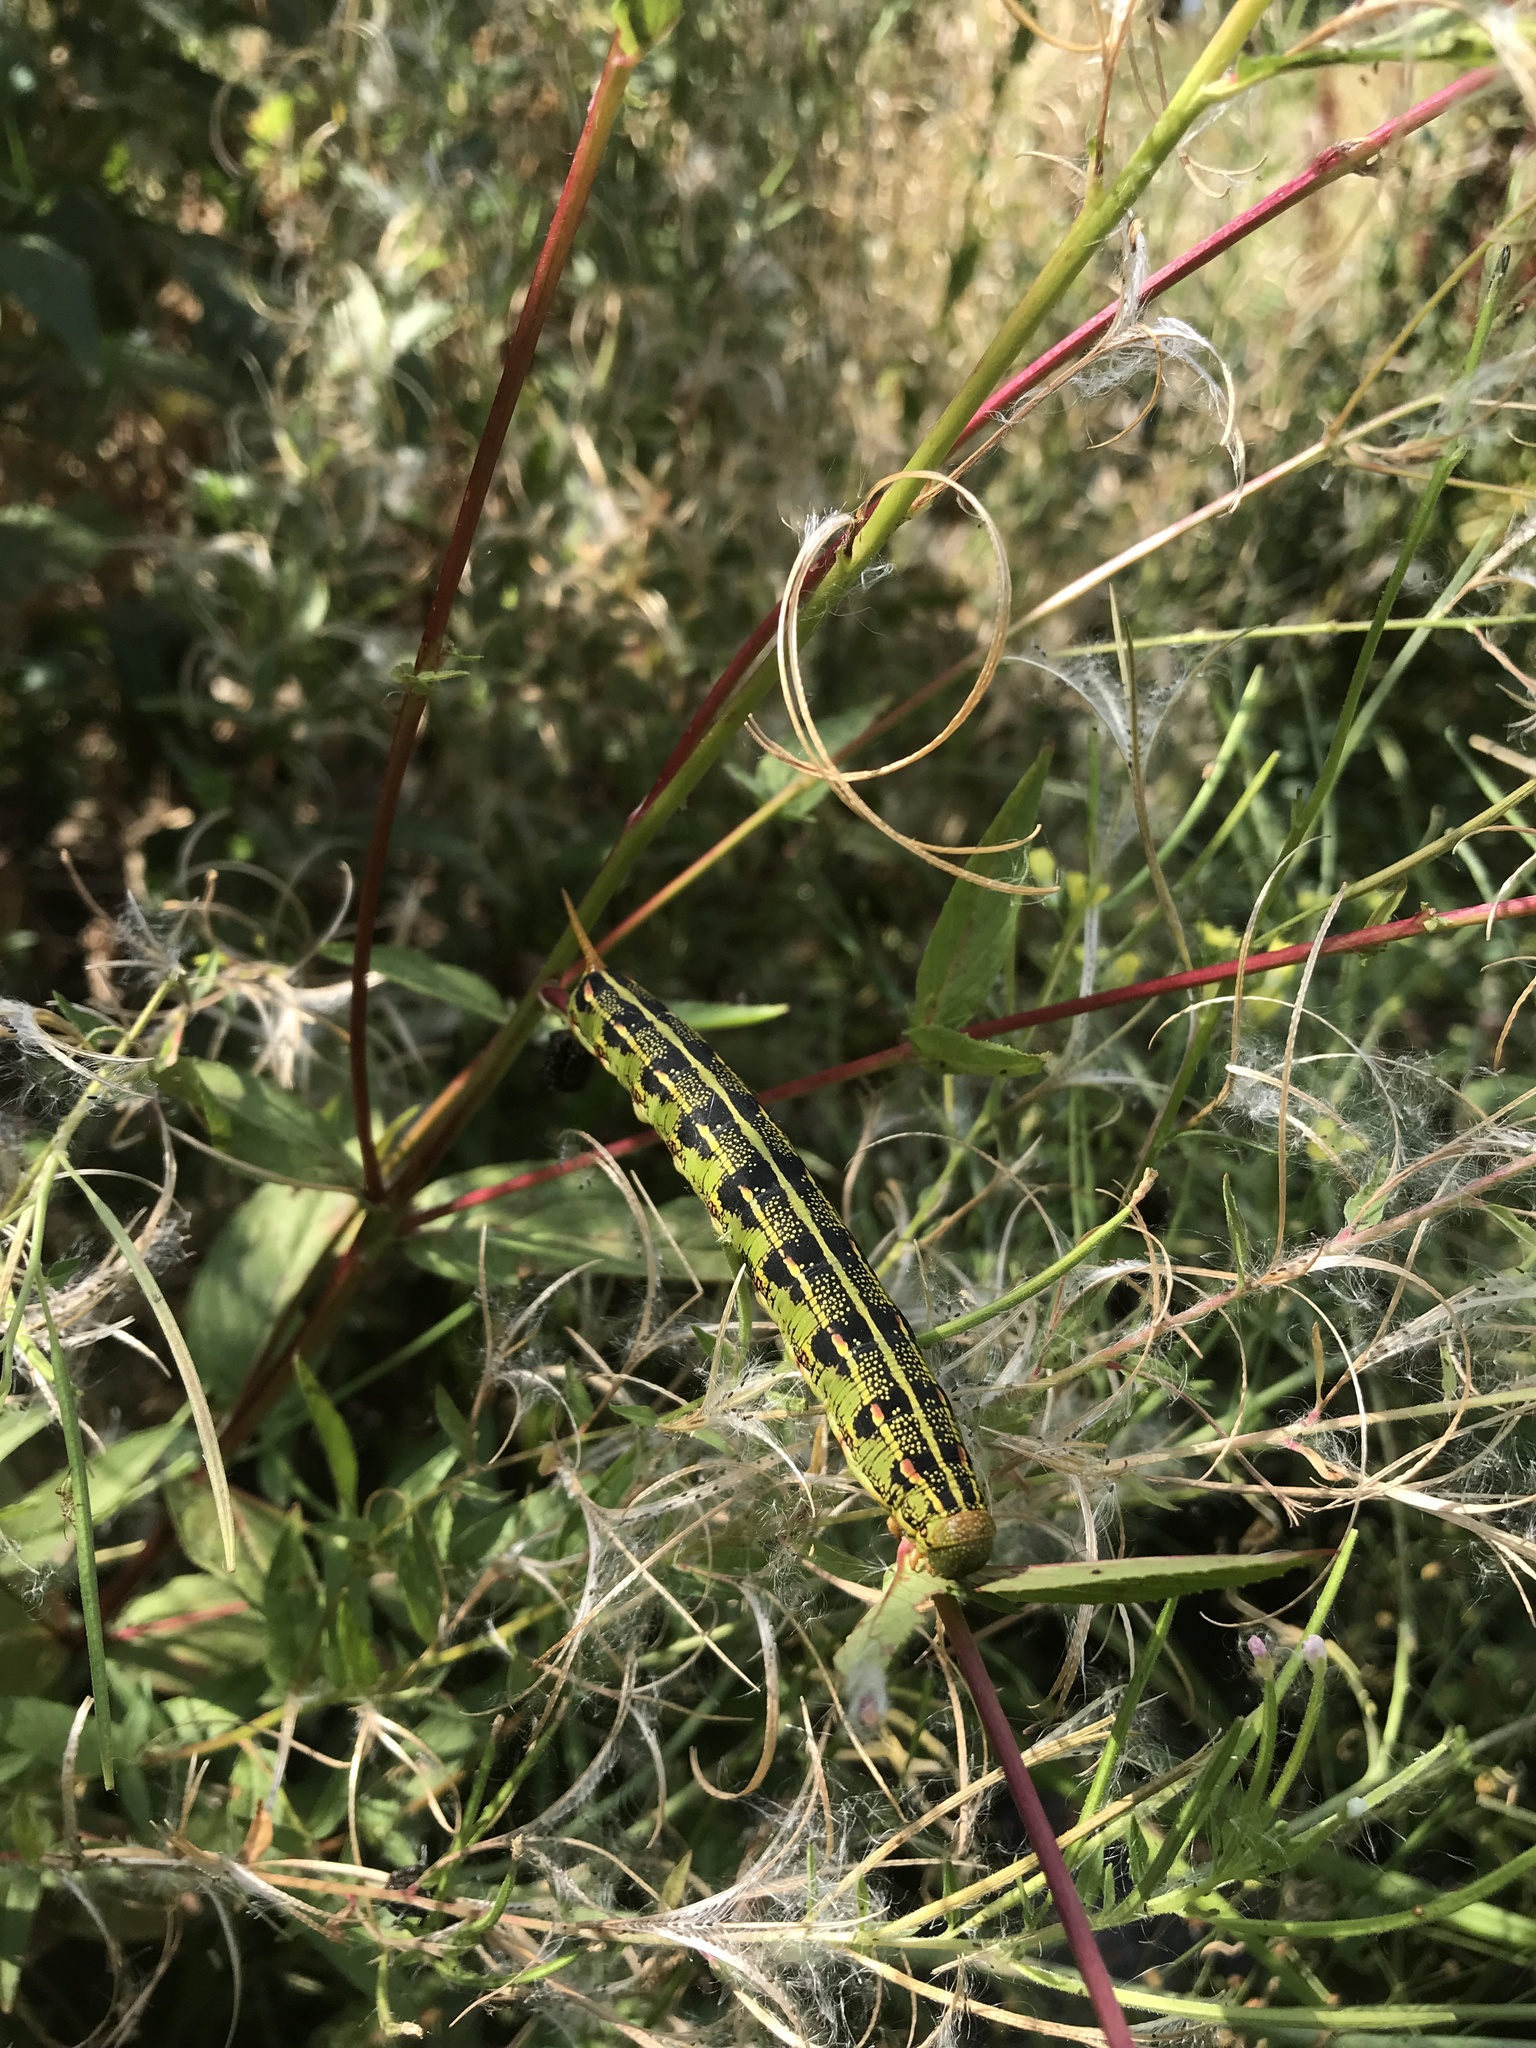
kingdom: Animalia
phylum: Arthropoda
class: Insecta
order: Lepidoptera
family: Sphingidae
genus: Hyles
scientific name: Hyles lineata
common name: White-lined sphinx
